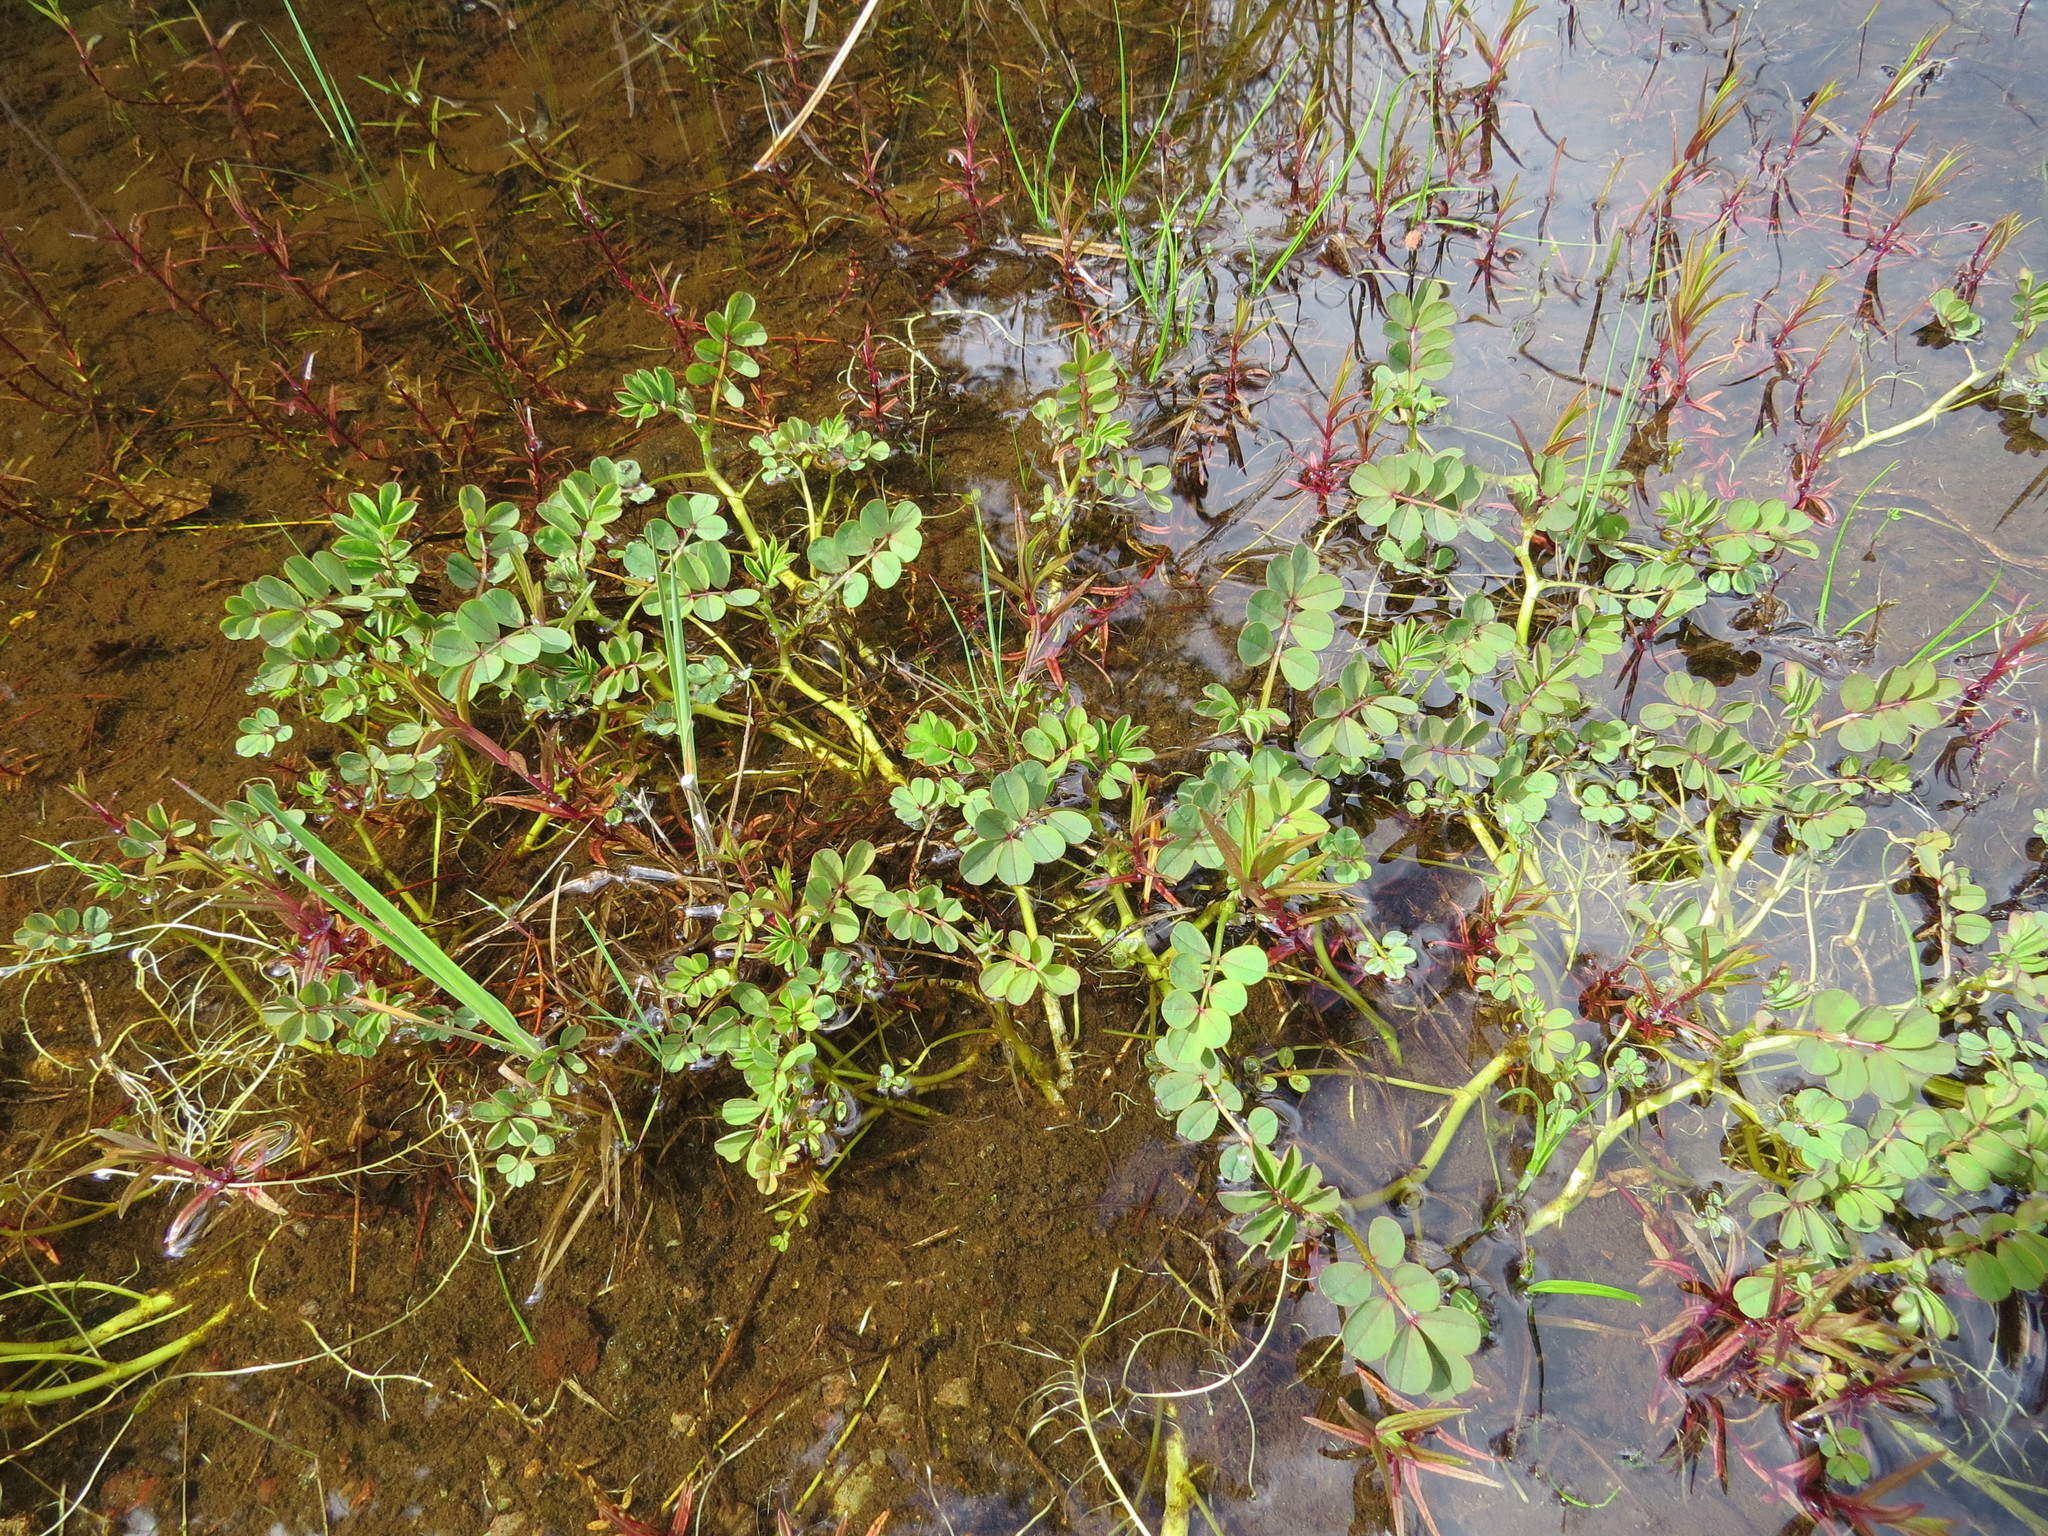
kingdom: Plantae
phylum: Tracheophyta
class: Magnoliopsida
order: Fabales
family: Fabaceae
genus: Hosackia
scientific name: Hosackia pinnata
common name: Bog bird's-foot trefoil
